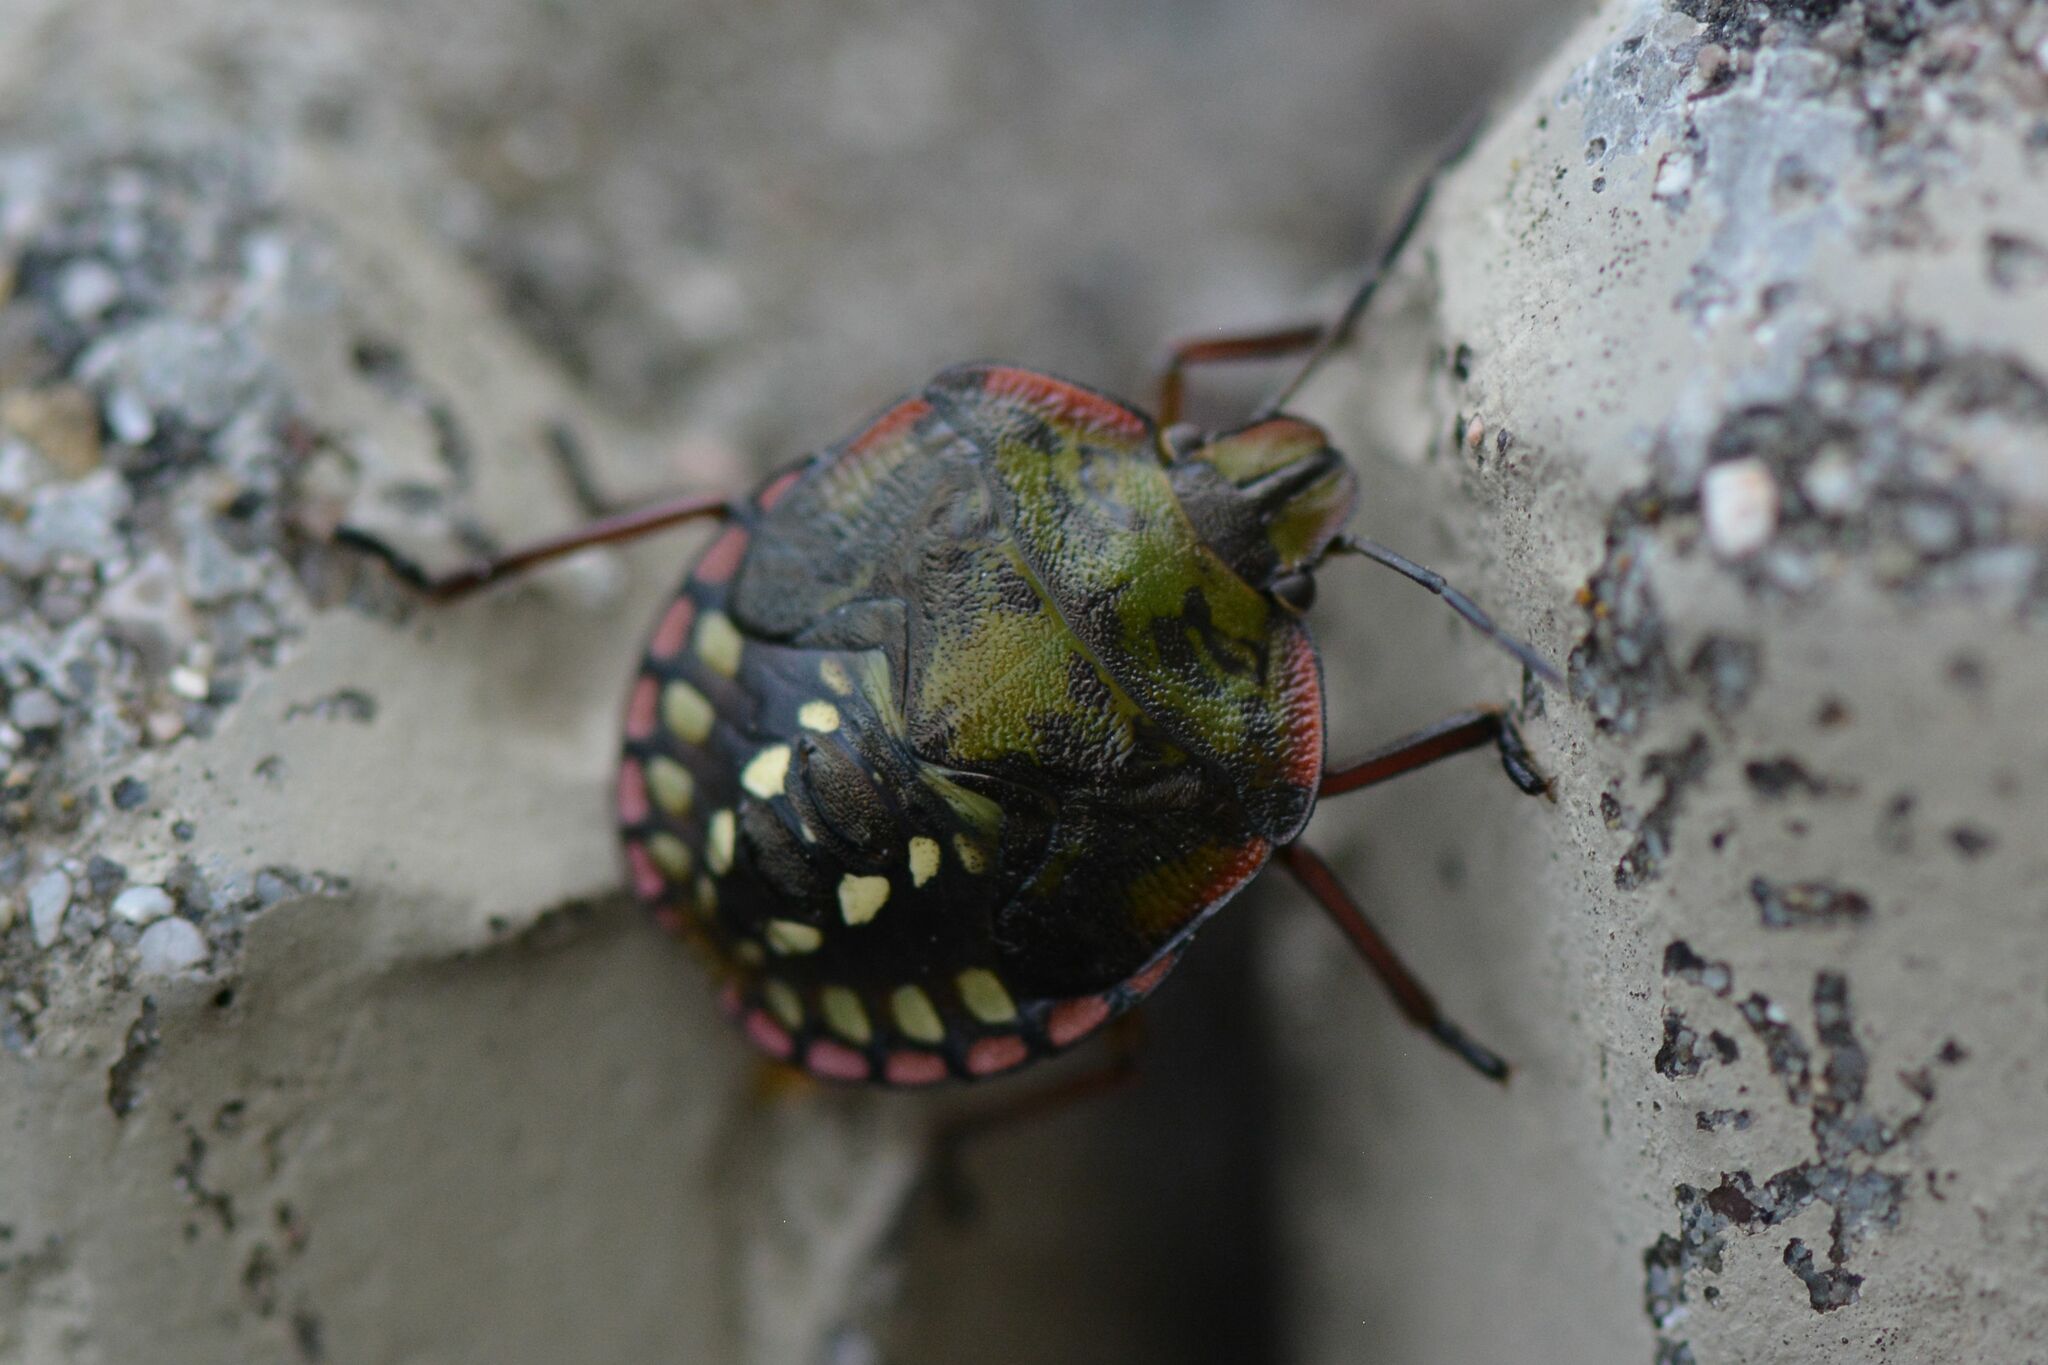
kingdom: Animalia
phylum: Arthropoda
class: Insecta
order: Hemiptera
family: Pentatomidae
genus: Nezara
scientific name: Nezara viridula
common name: Southern green stink bug
